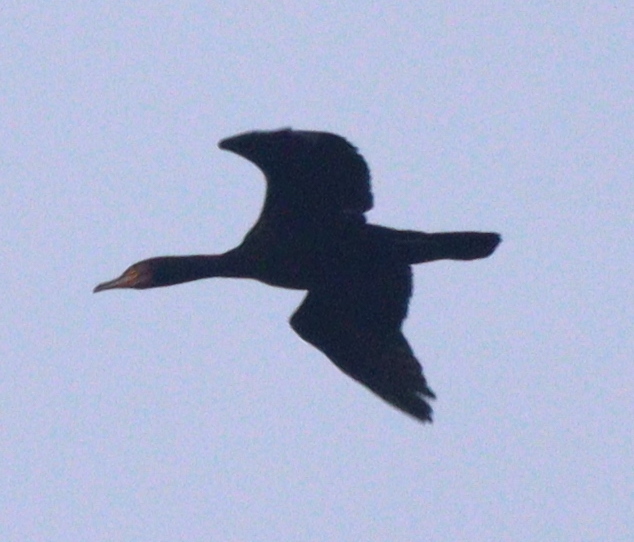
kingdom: Animalia
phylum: Chordata
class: Aves
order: Suliformes
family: Phalacrocoracidae
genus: Phalacrocorax
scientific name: Phalacrocorax carbo
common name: Great cormorant
